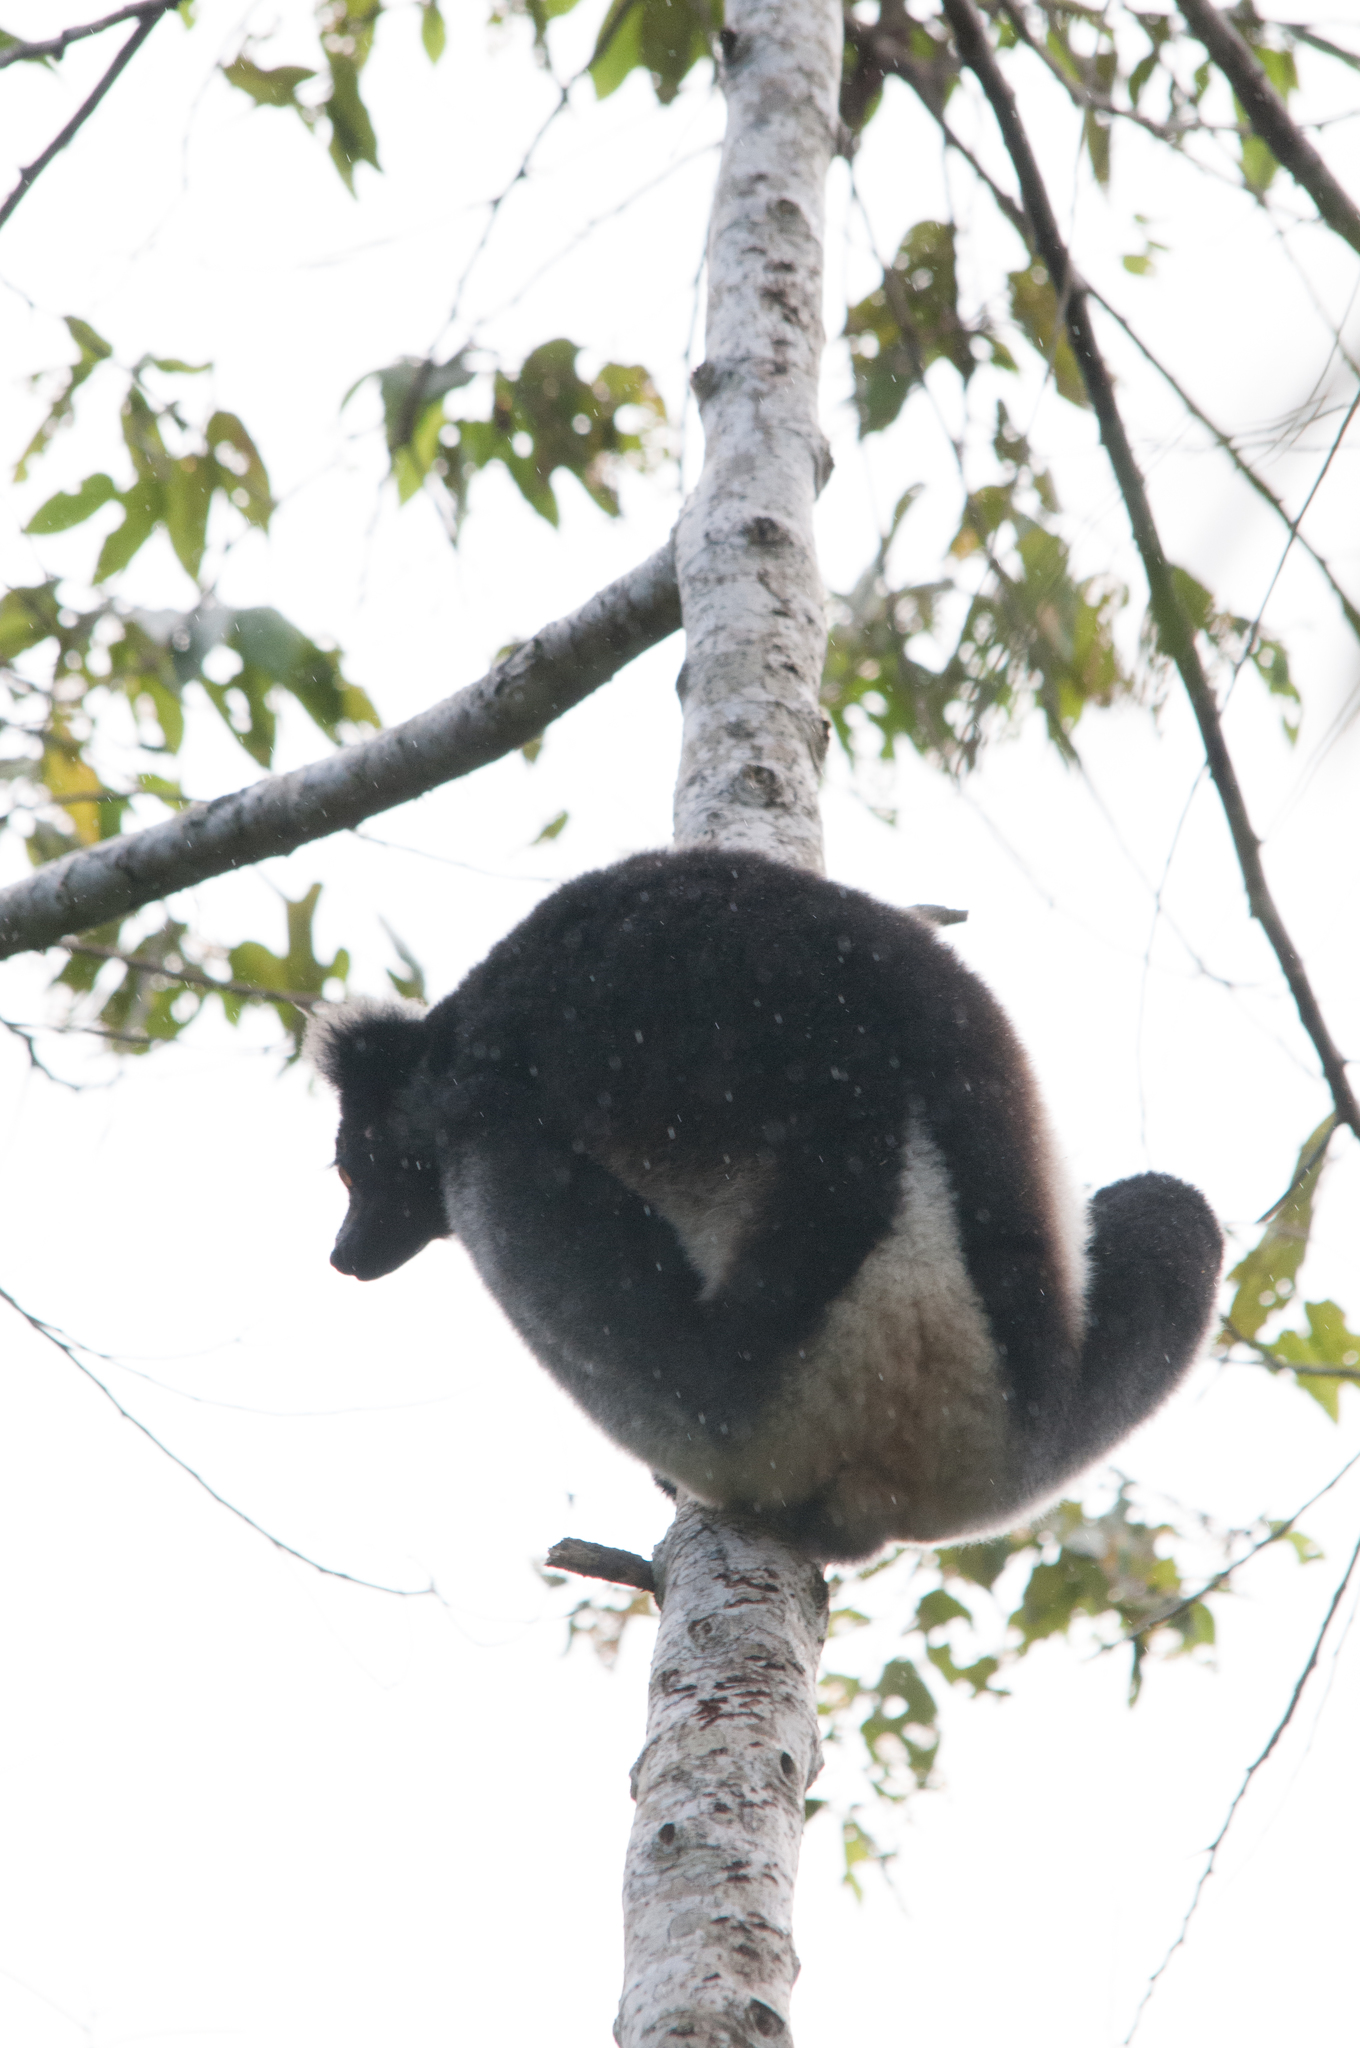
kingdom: Animalia
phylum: Chordata
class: Mammalia
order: Primates
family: Indriidae
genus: Indri
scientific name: Indri indri
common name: Indri
